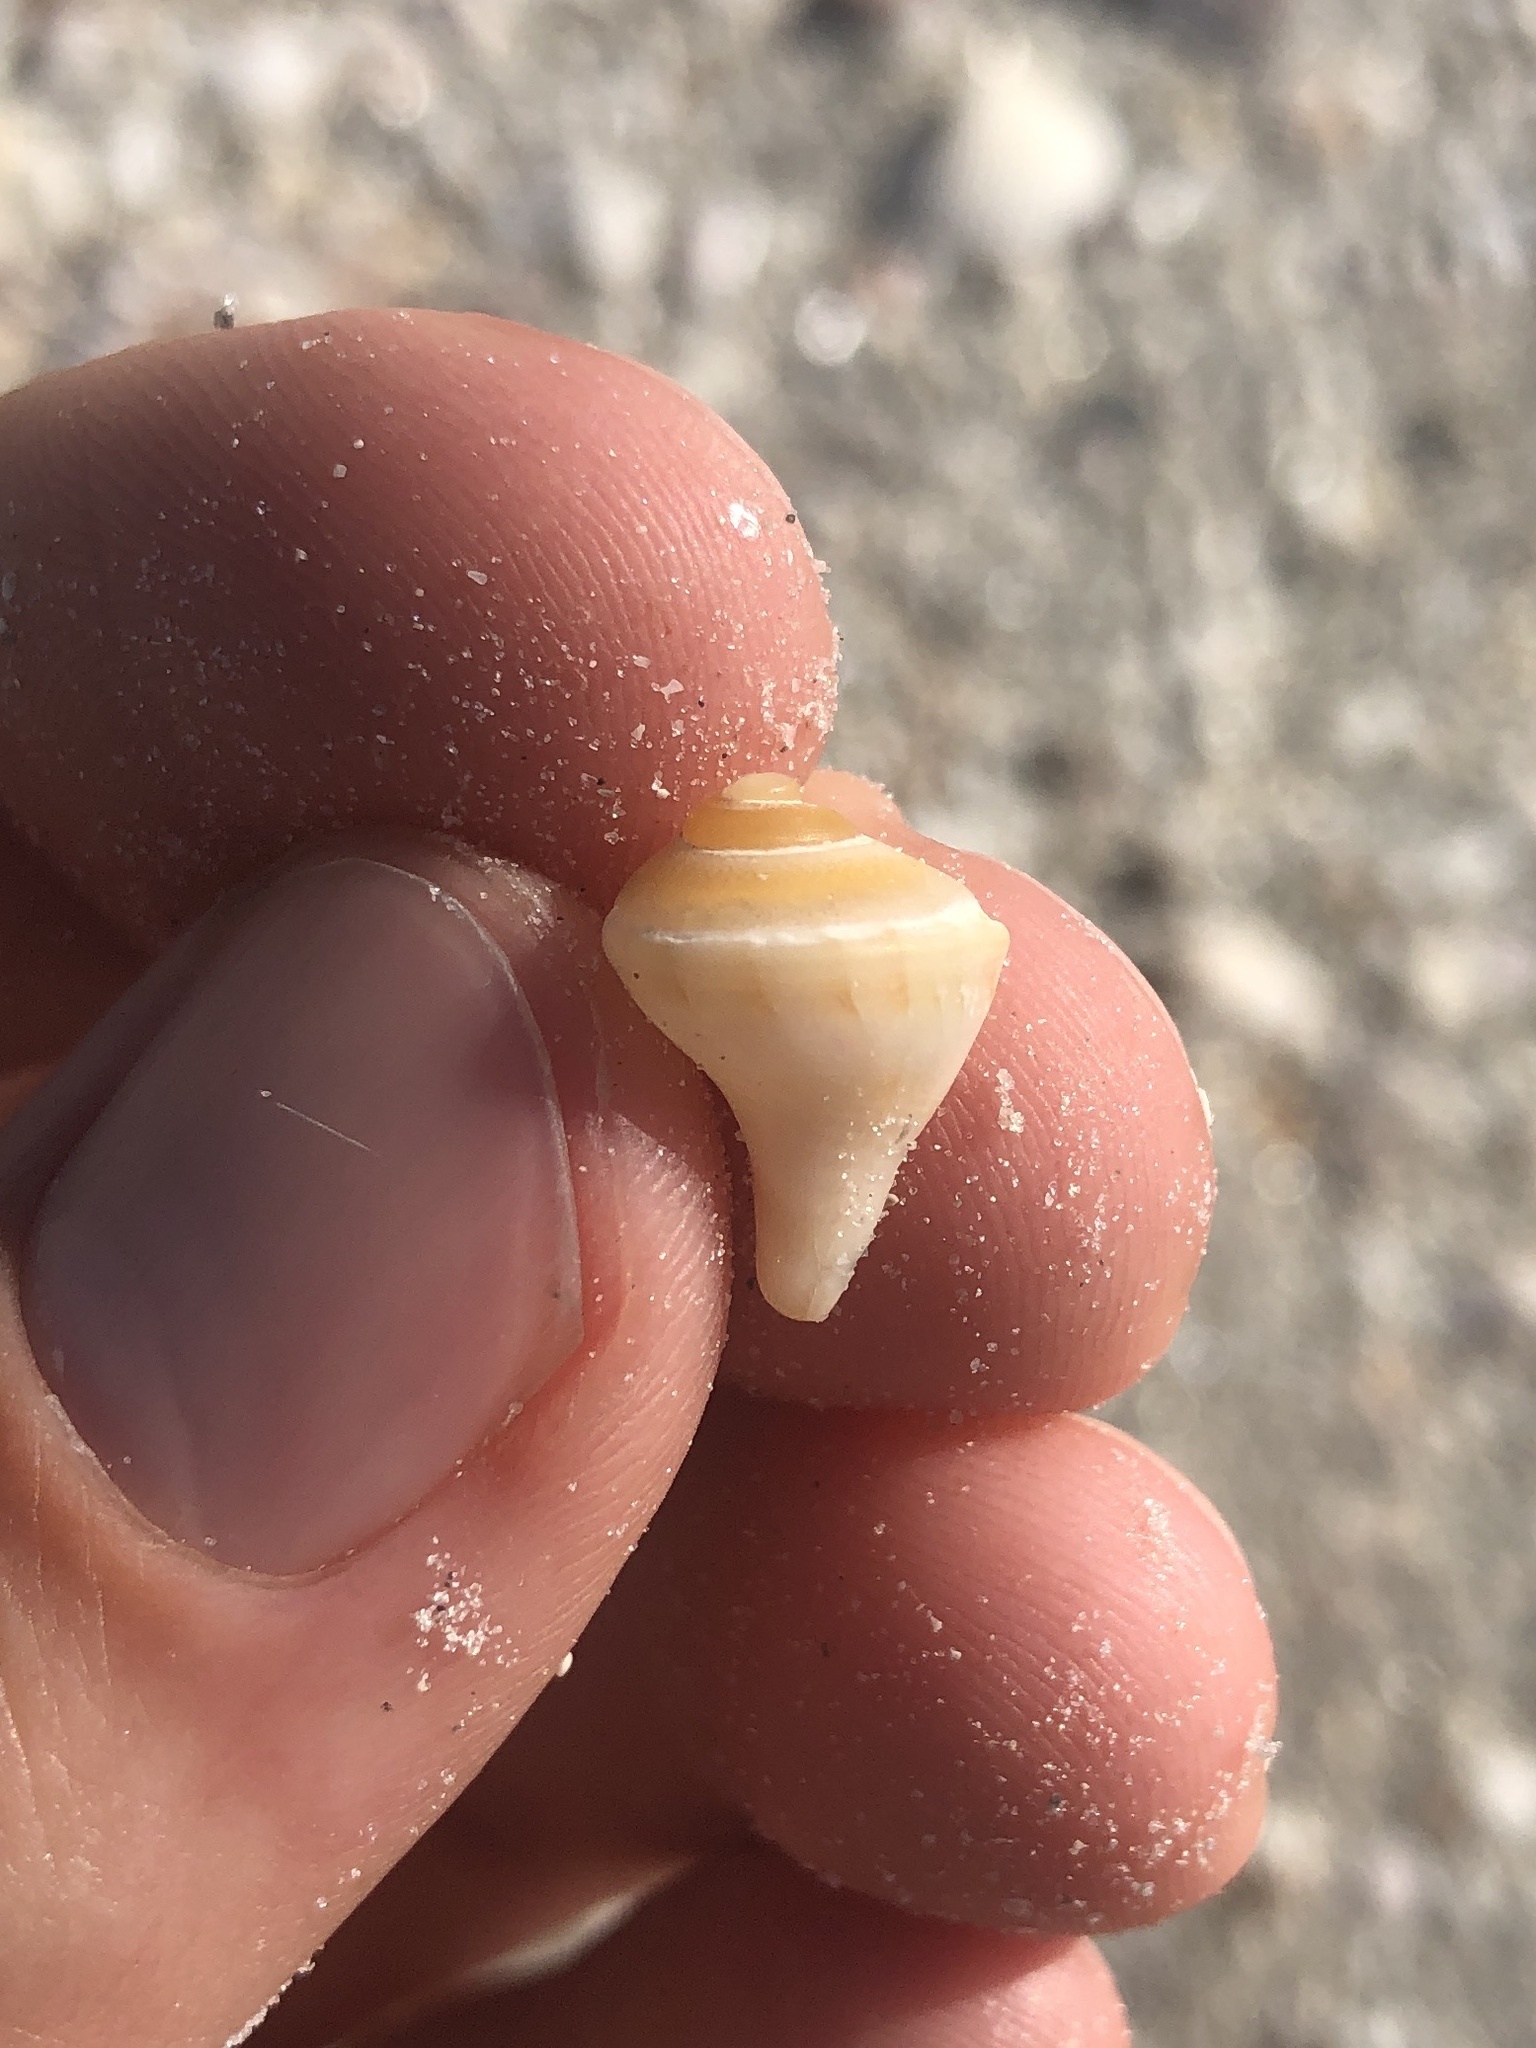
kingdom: Animalia
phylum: Mollusca
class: Gastropoda
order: Neogastropoda
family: Busyconidae
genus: Sinistrofulgur
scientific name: Sinistrofulgur sinistrum
